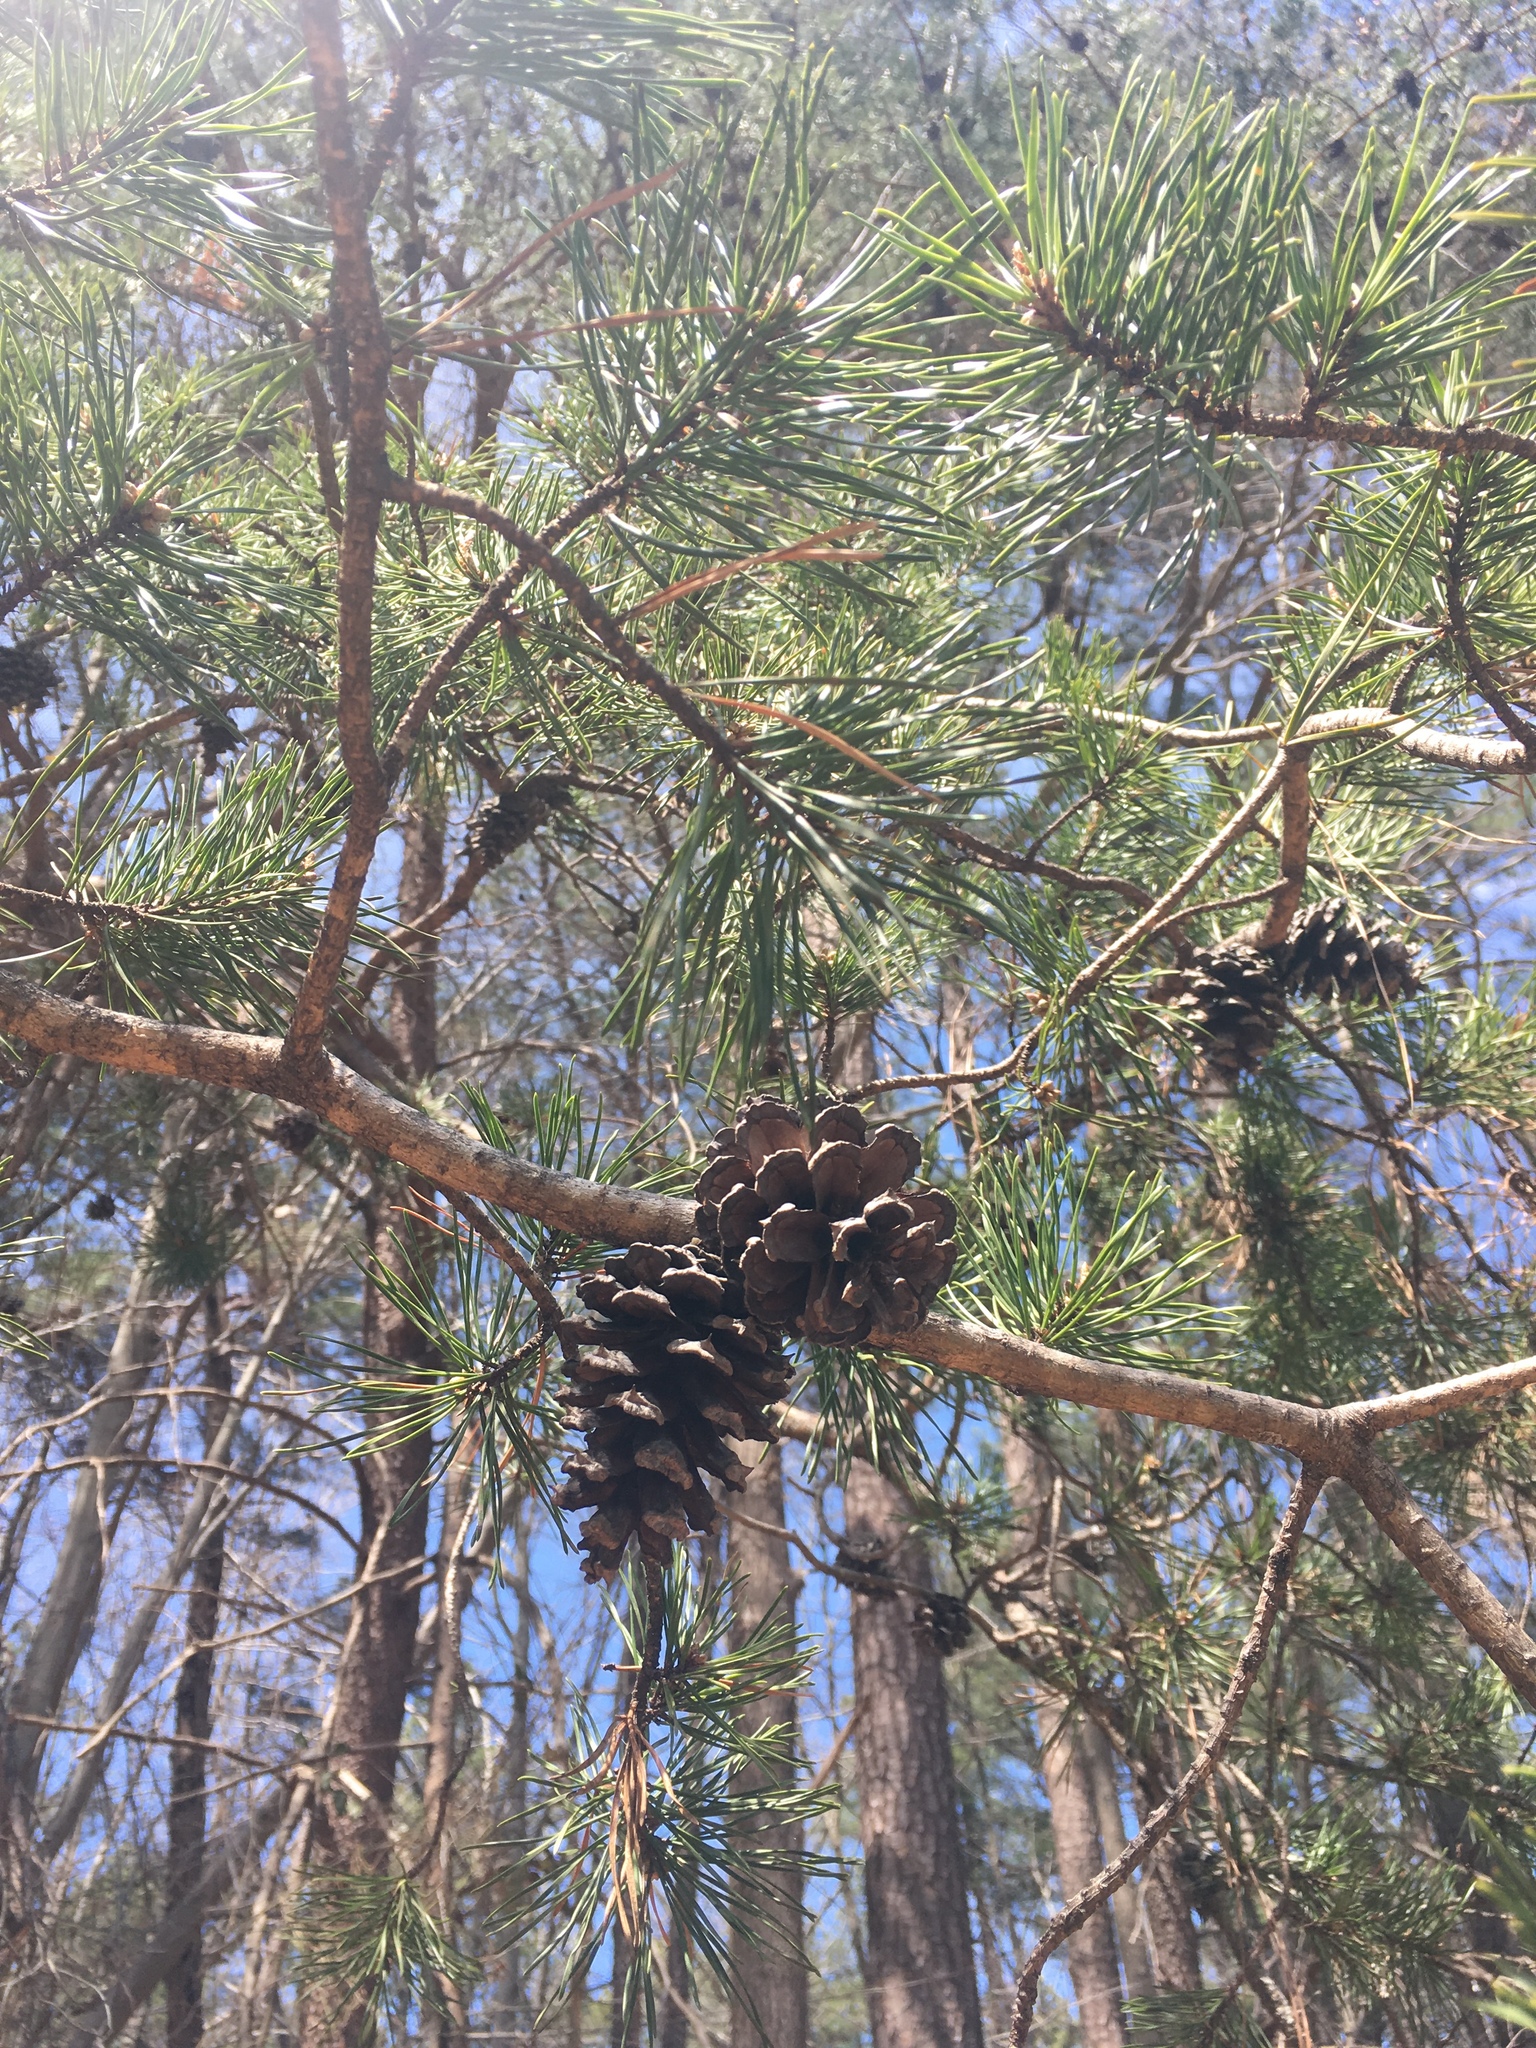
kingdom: Plantae
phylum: Tracheophyta
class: Pinopsida
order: Pinales
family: Pinaceae
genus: Pinus
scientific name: Pinus virginiana
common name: Scrub pine
